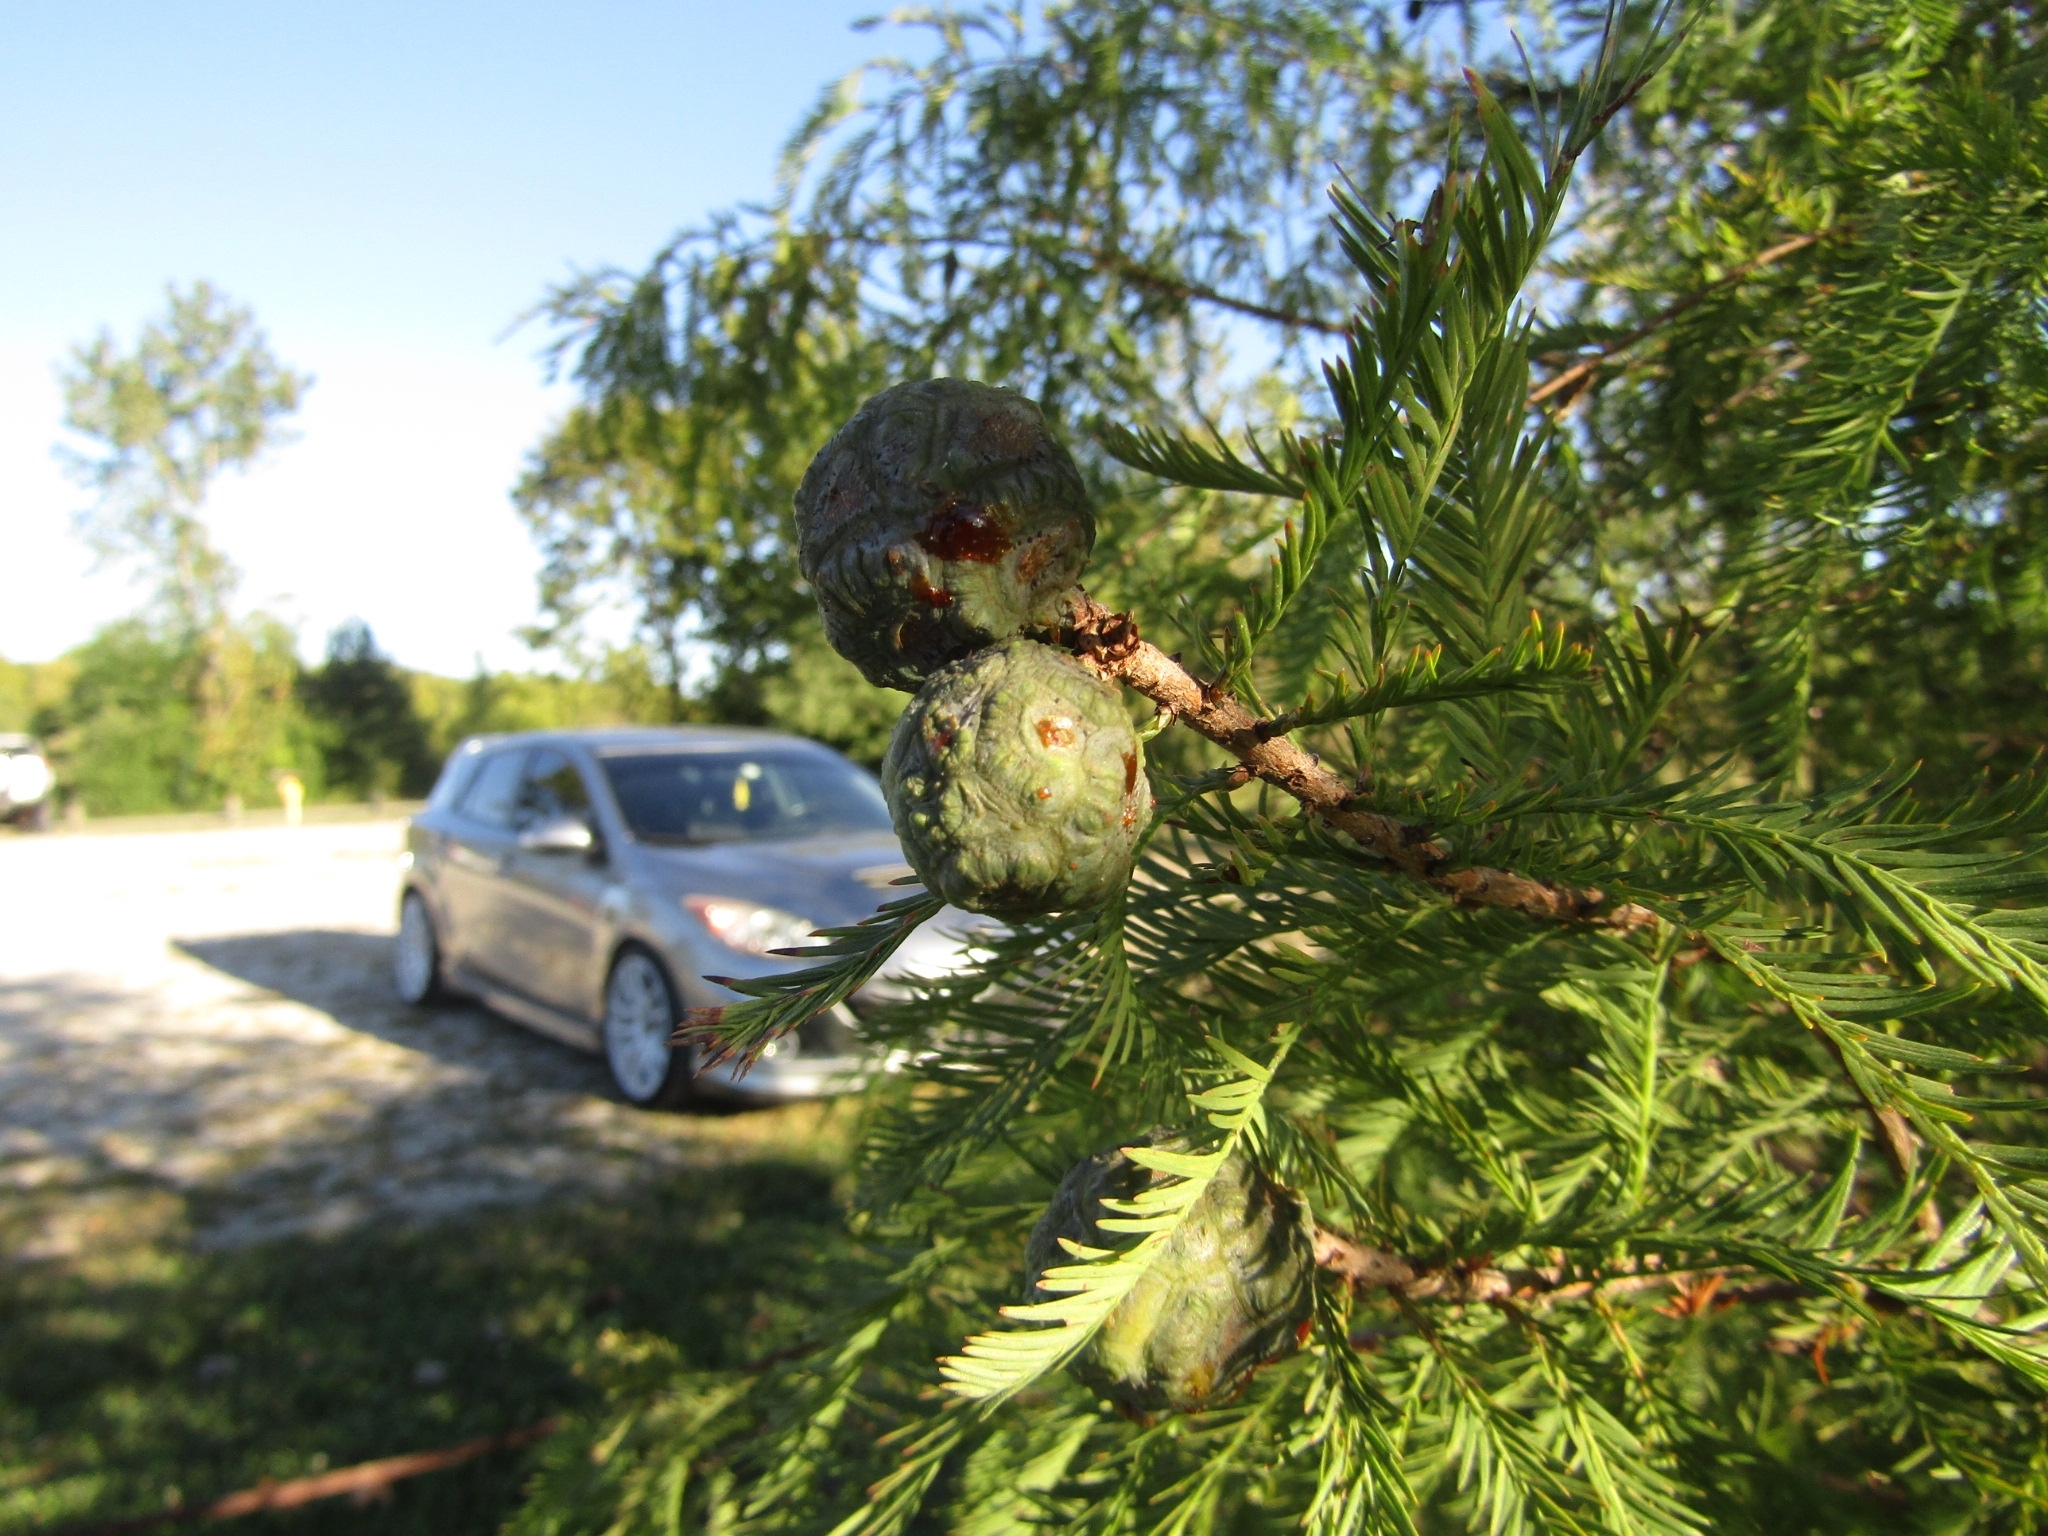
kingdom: Plantae
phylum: Tracheophyta
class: Pinopsida
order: Pinales
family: Cupressaceae
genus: Taxodium
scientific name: Taxodium distichum
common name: Bald cypress
